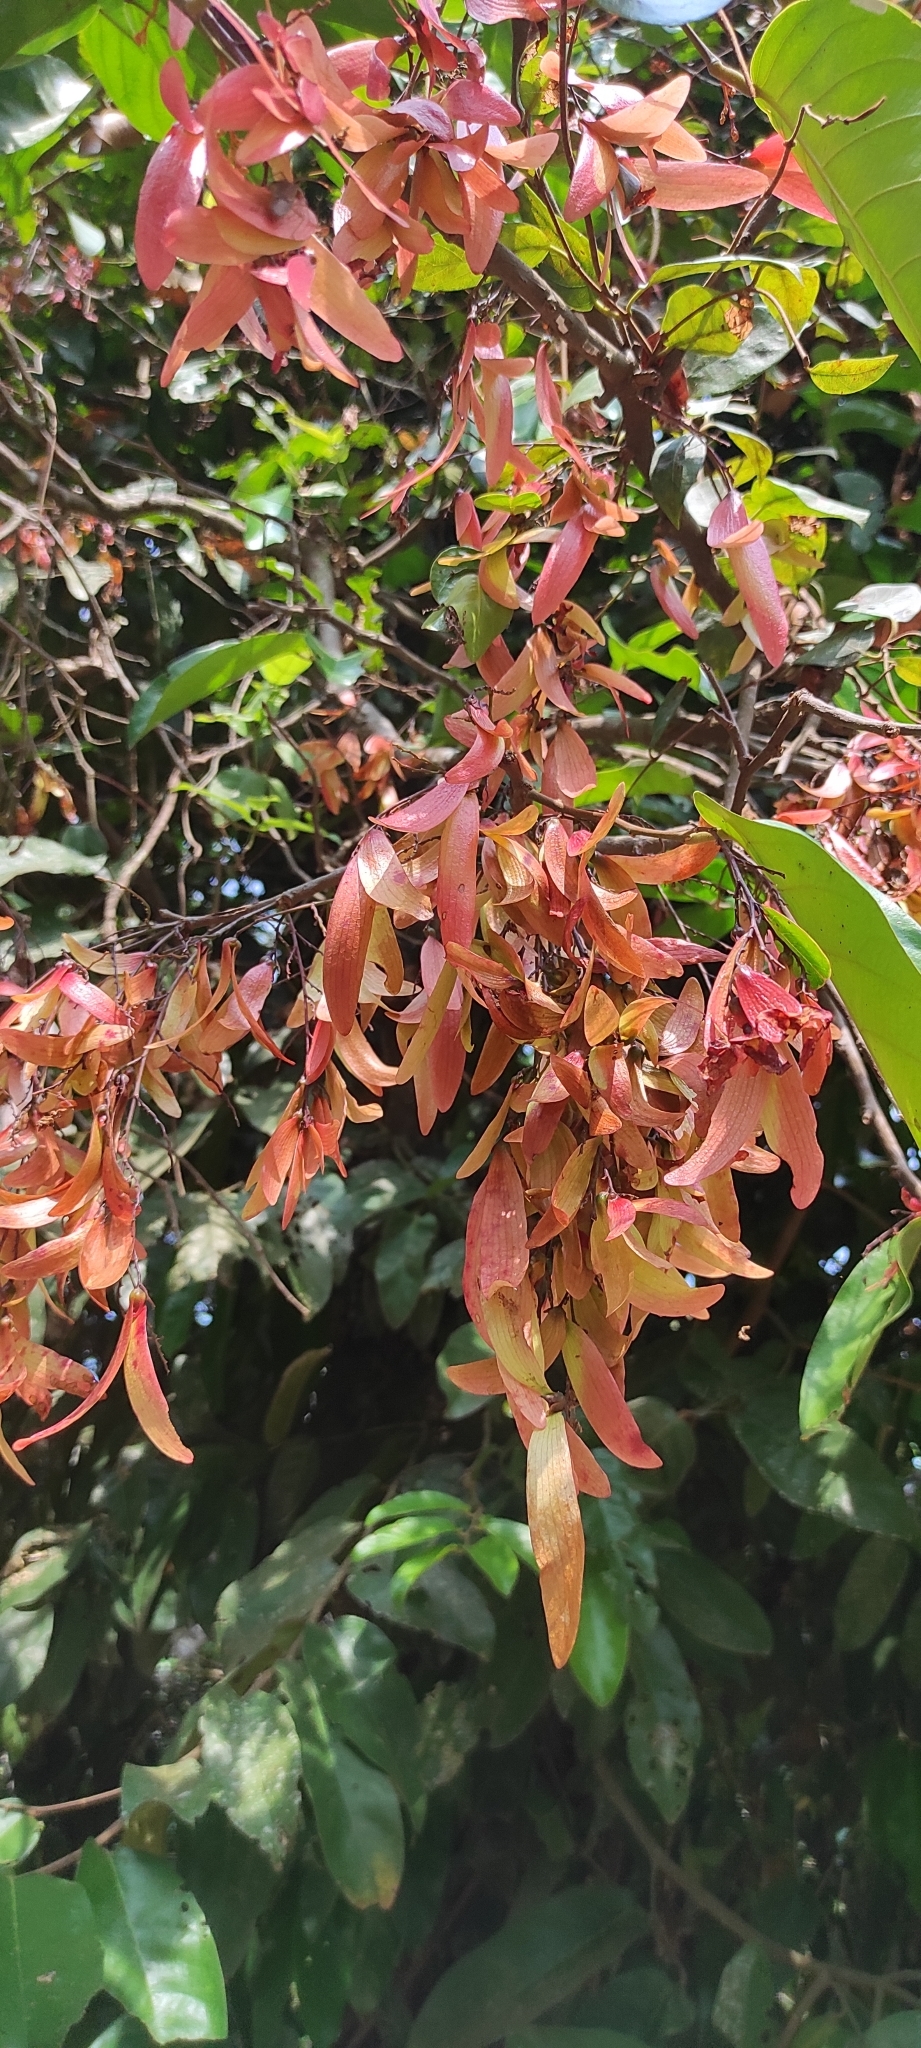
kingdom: Plantae
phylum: Tracheophyta
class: Magnoliopsida
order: Malvales
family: Dipterocarpaceae
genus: Hopea
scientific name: Hopea ponga
